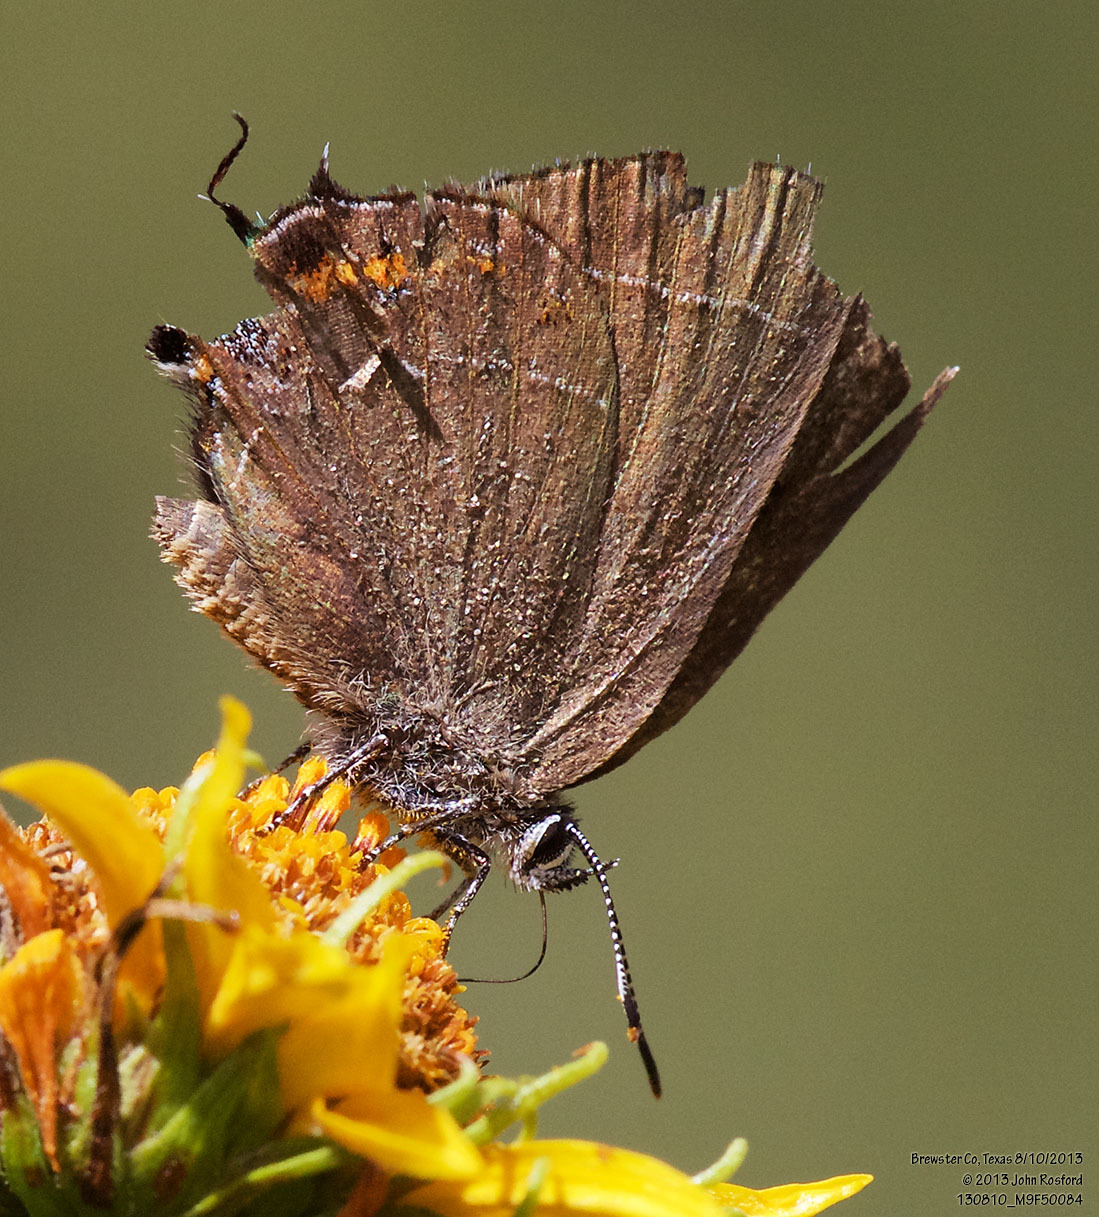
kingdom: Animalia
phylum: Arthropoda
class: Insecta
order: Lepidoptera
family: Lycaenidae
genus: Fixsenia
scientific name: Fixsenia polingi
